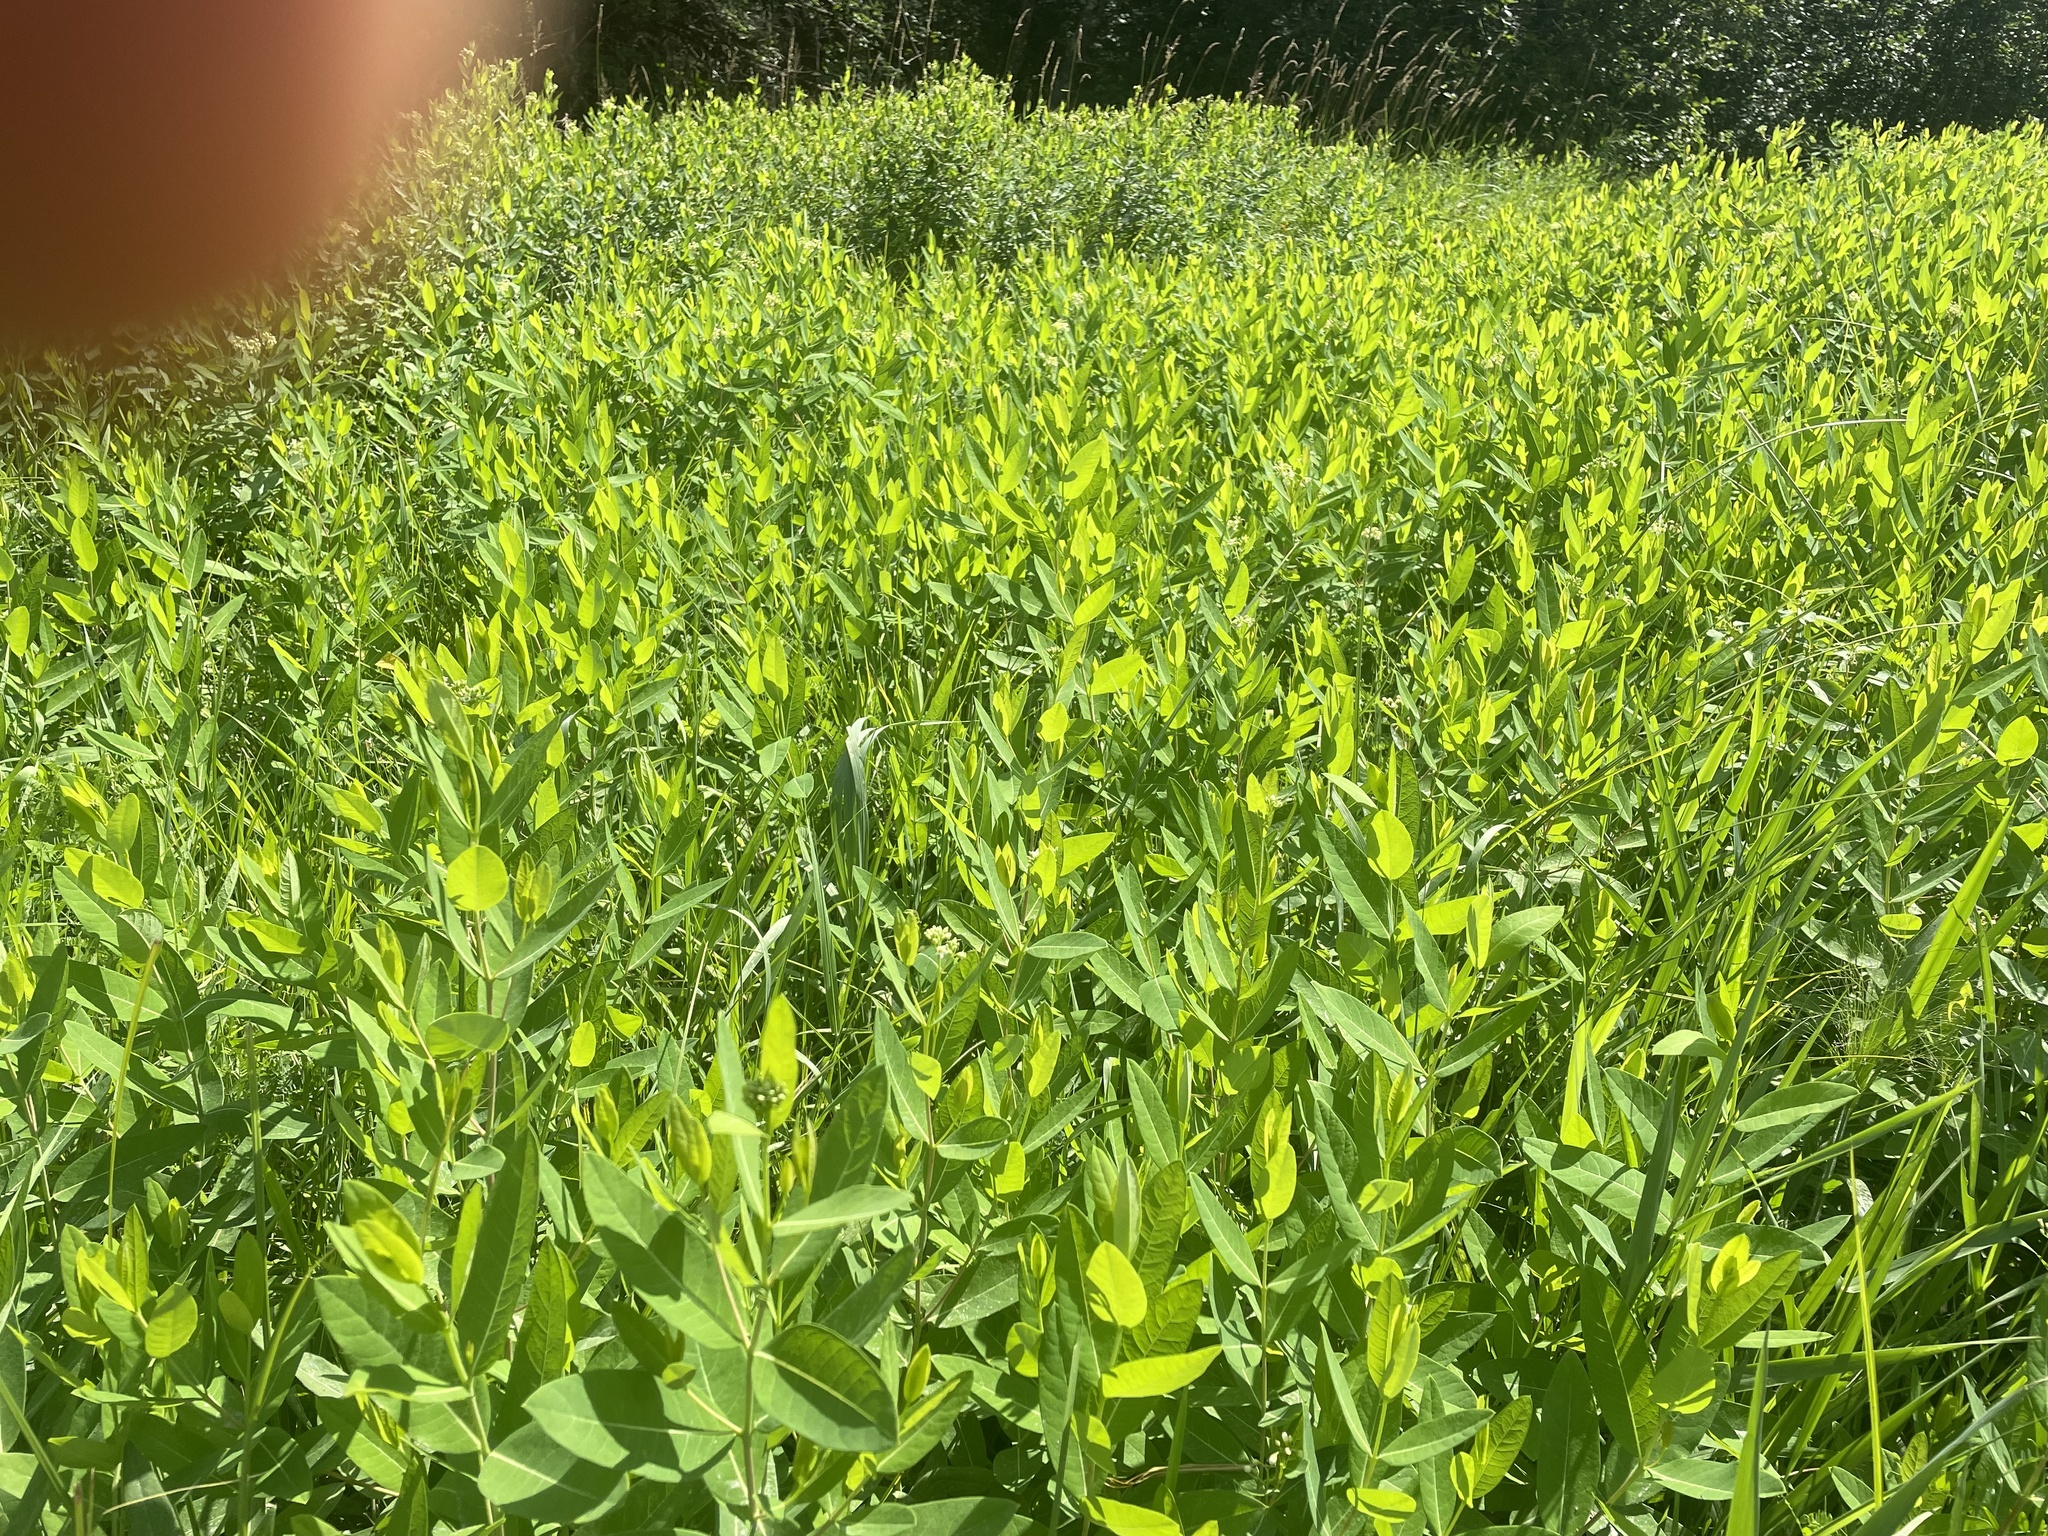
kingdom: Plantae
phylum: Tracheophyta
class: Magnoliopsida
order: Gentianales
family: Apocynaceae
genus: Apocynum
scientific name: Apocynum cannabinum
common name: Hemp dogbane
